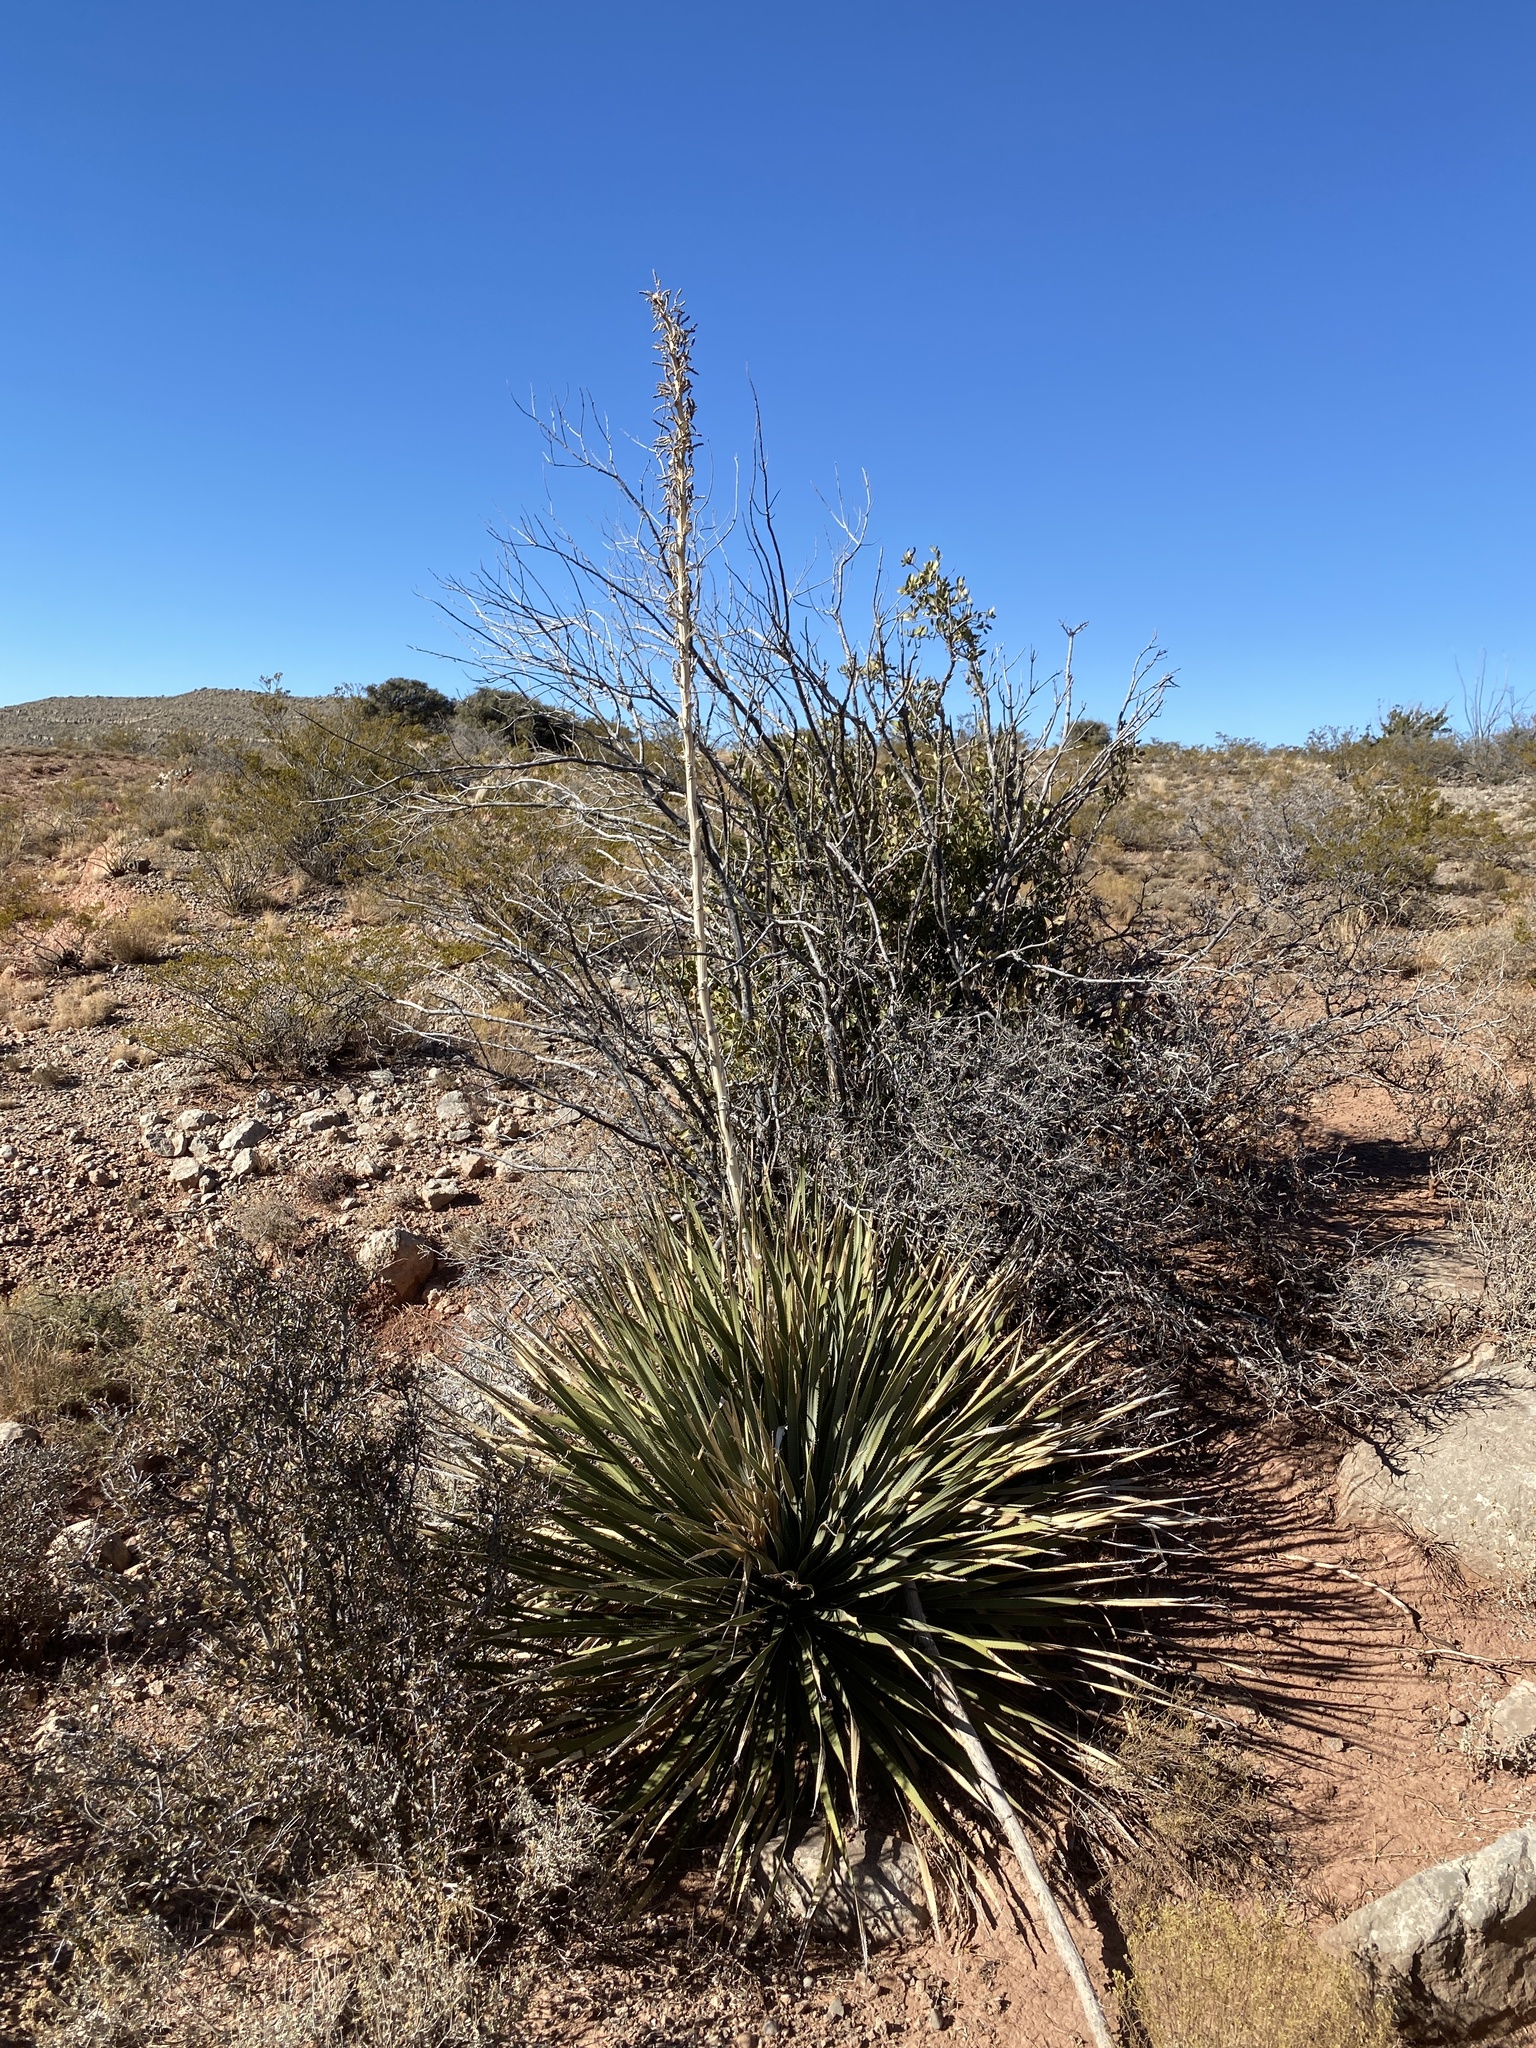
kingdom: Plantae
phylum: Tracheophyta
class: Liliopsida
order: Asparagales
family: Asparagaceae
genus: Dasylirion
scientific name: Dasylirion wheeleri
